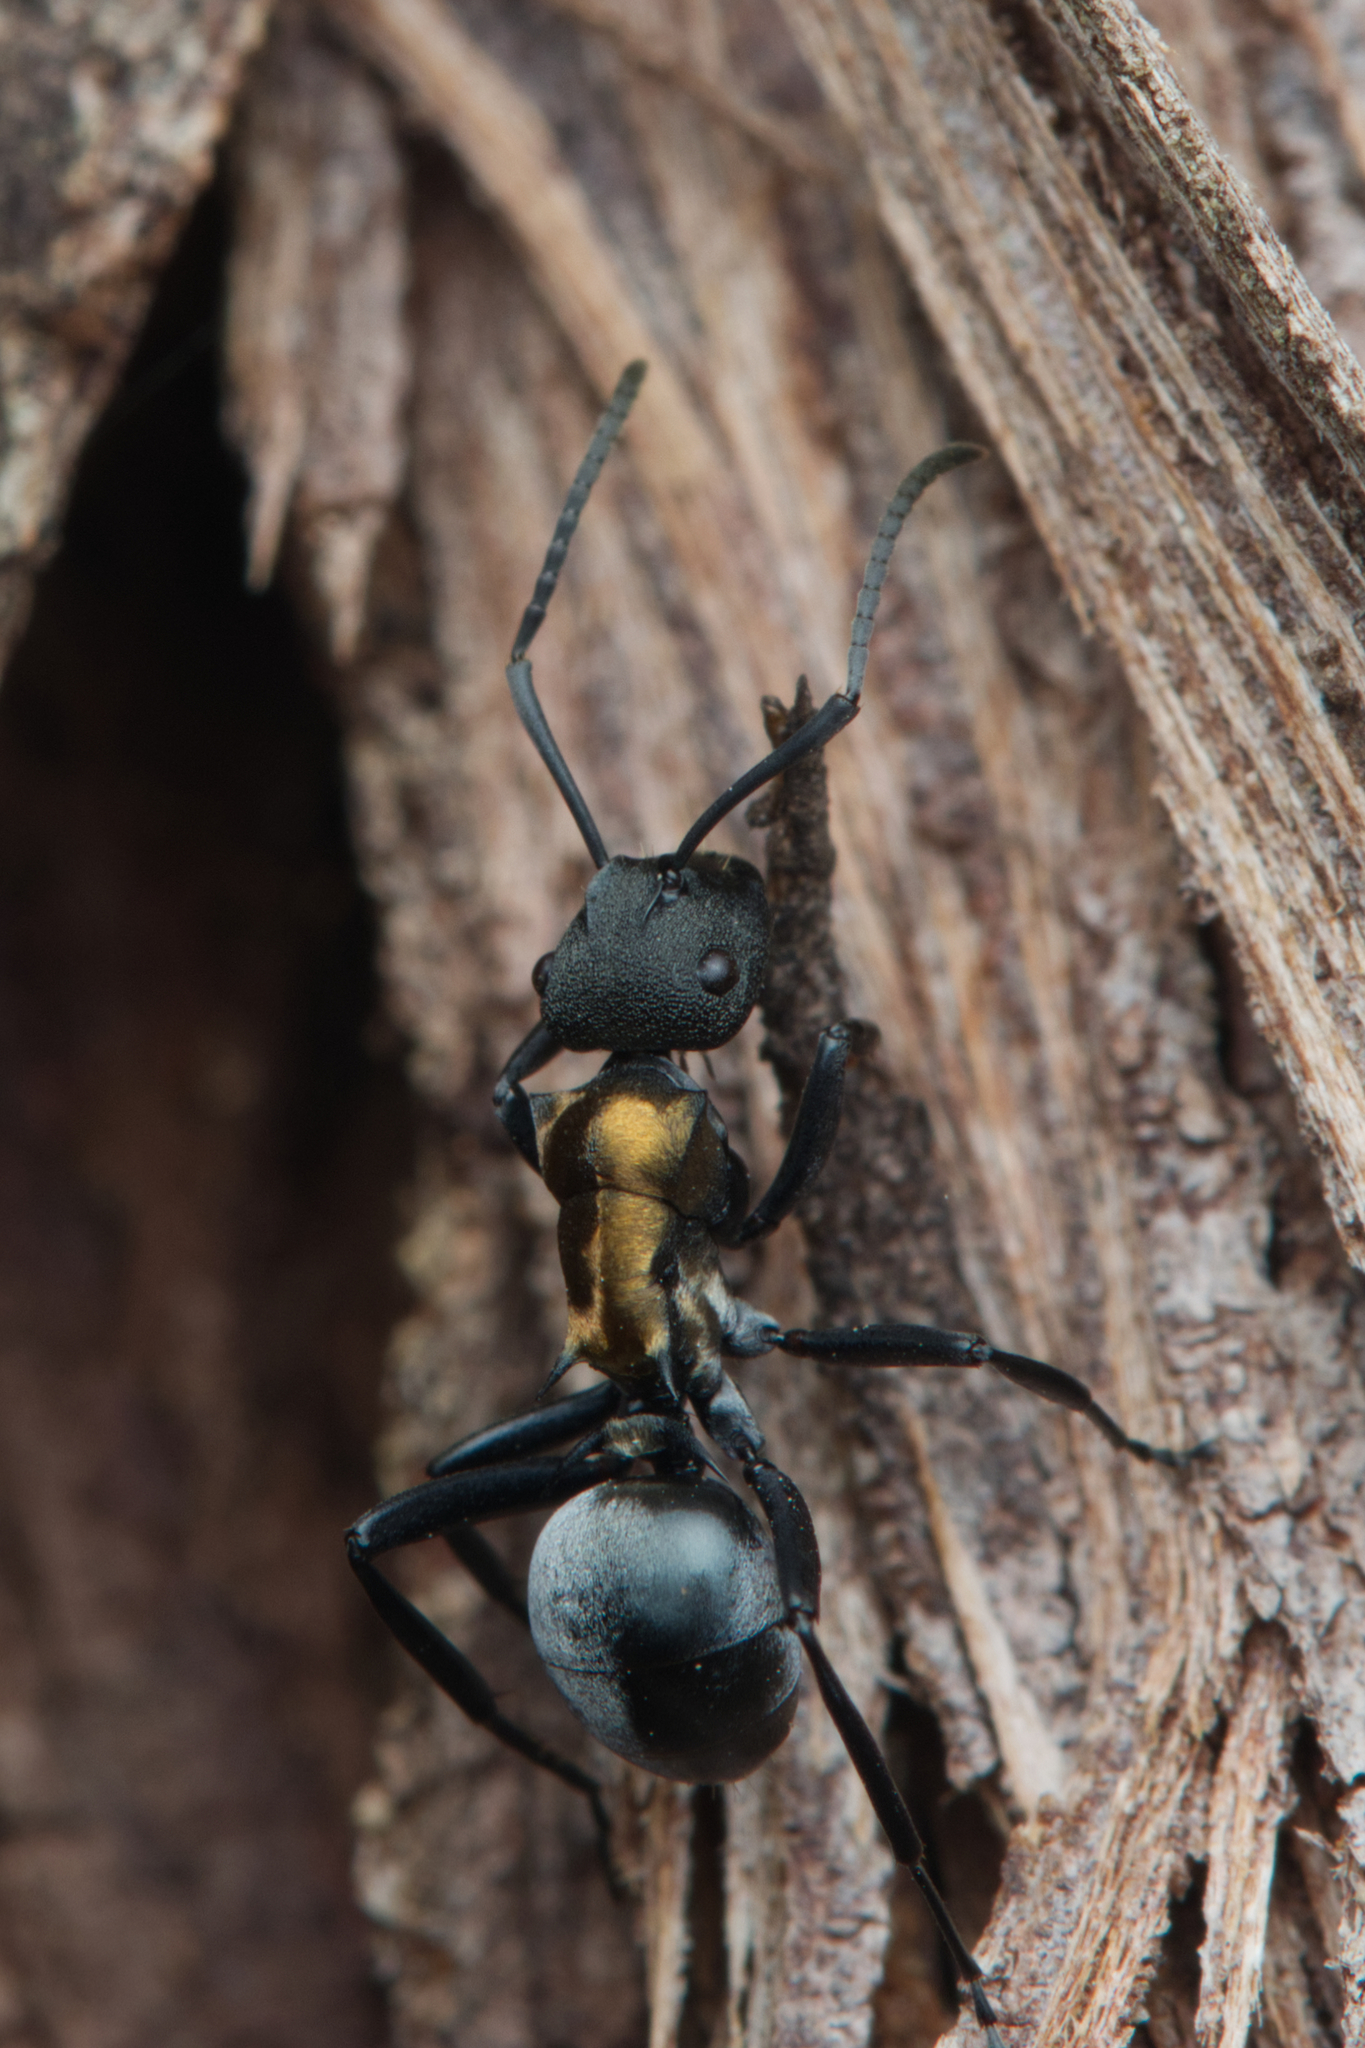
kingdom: Animalia
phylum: Arthropoda
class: Insecta
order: Hymenoptera
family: Formicidae
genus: Polyrhachis
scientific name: Polyrhachis ornata
